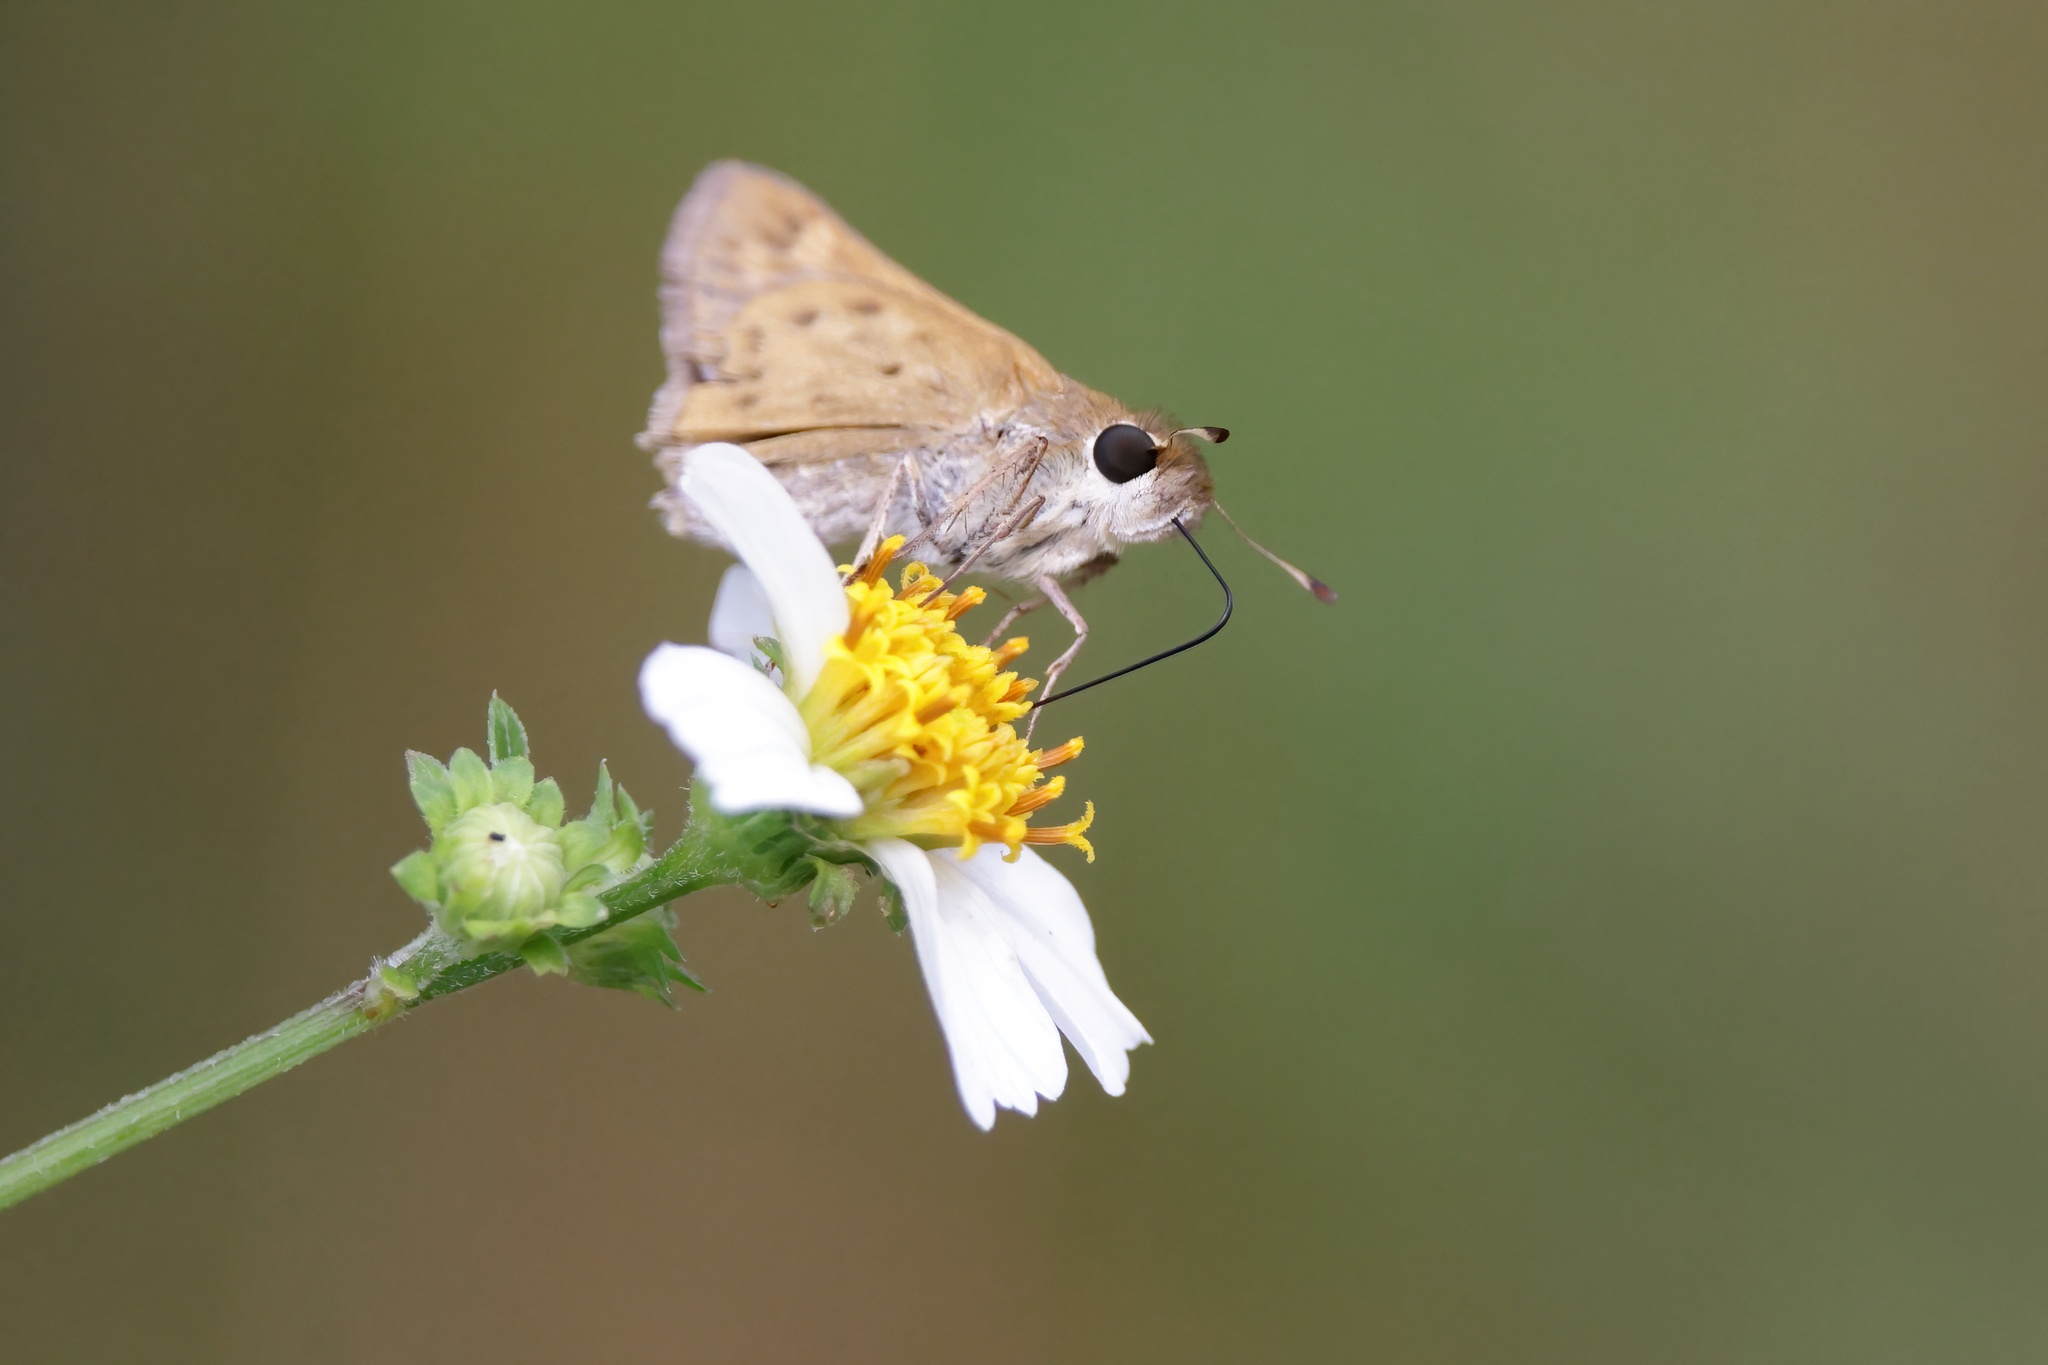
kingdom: Animalia
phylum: Arthropoda
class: Insecta
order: Lepidoptera
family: Hesperiidae
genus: Hylephila
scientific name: Hylephila phyleus
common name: Fiery skipper
